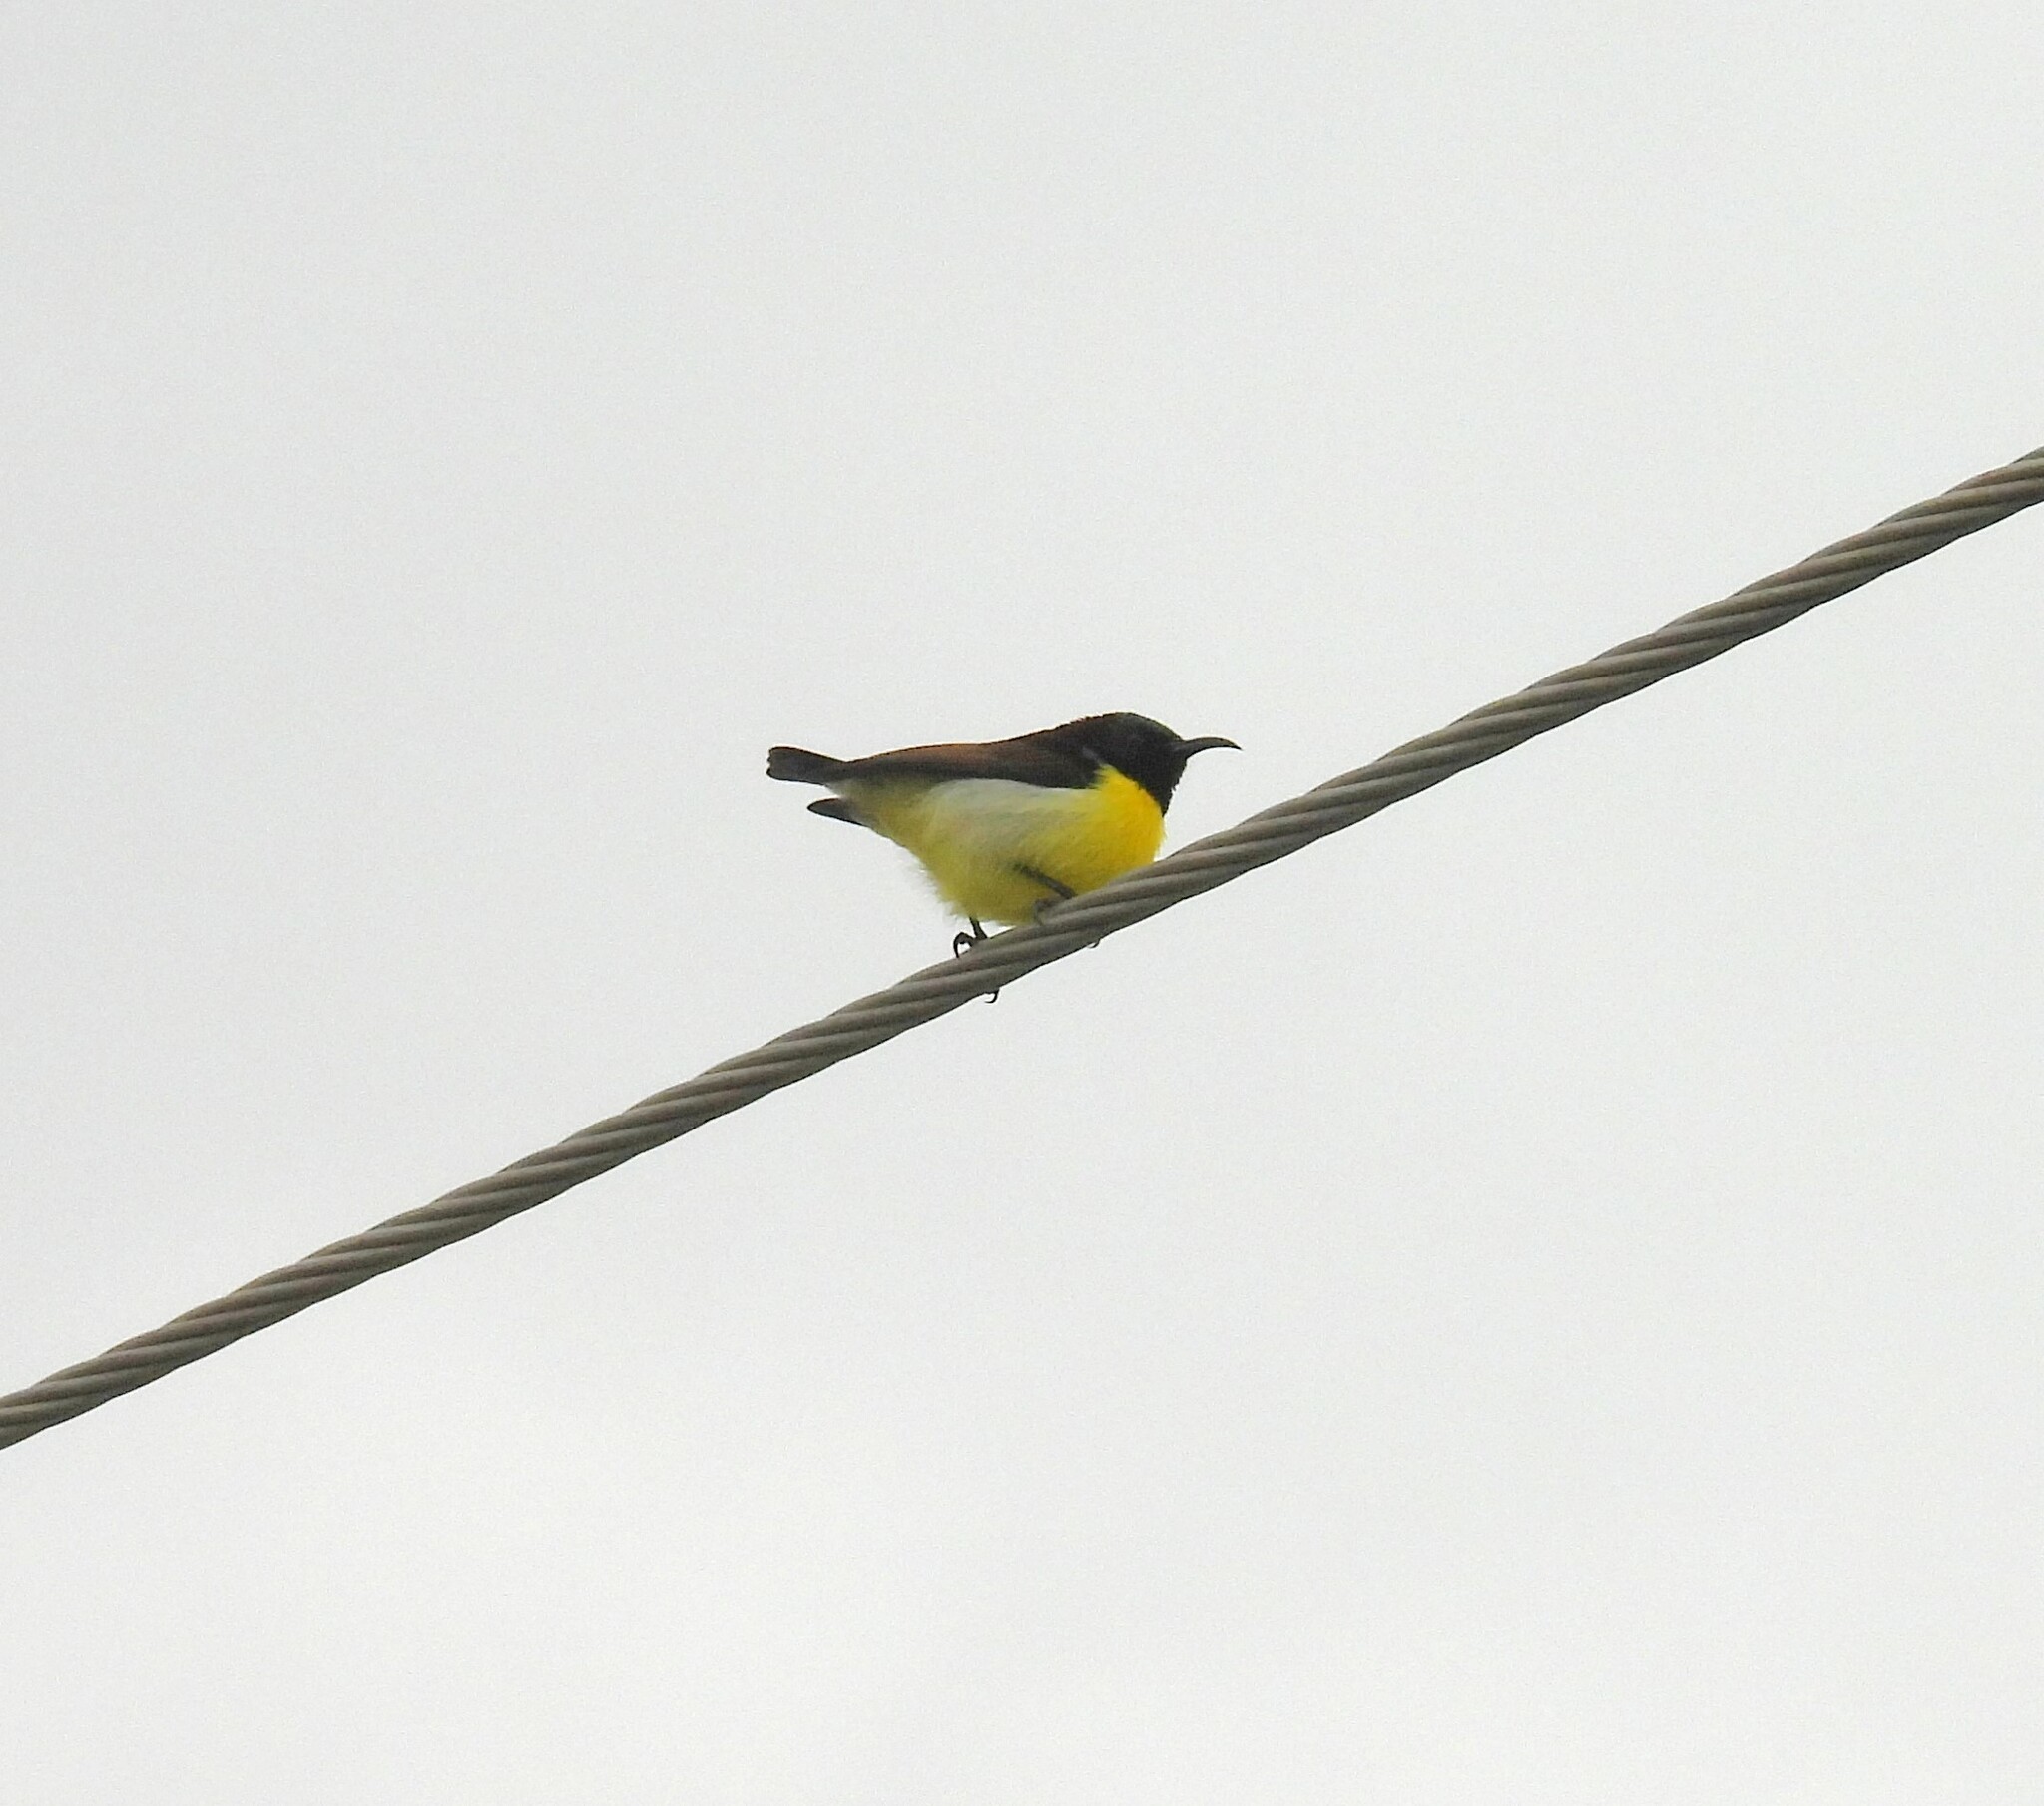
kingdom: Animalia
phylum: Chordata
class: Aves
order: Passeriformes
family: Nectariniidae
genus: Leptocoma
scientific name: Leptocoma zeylonica
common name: Purple-rumped sunbird
